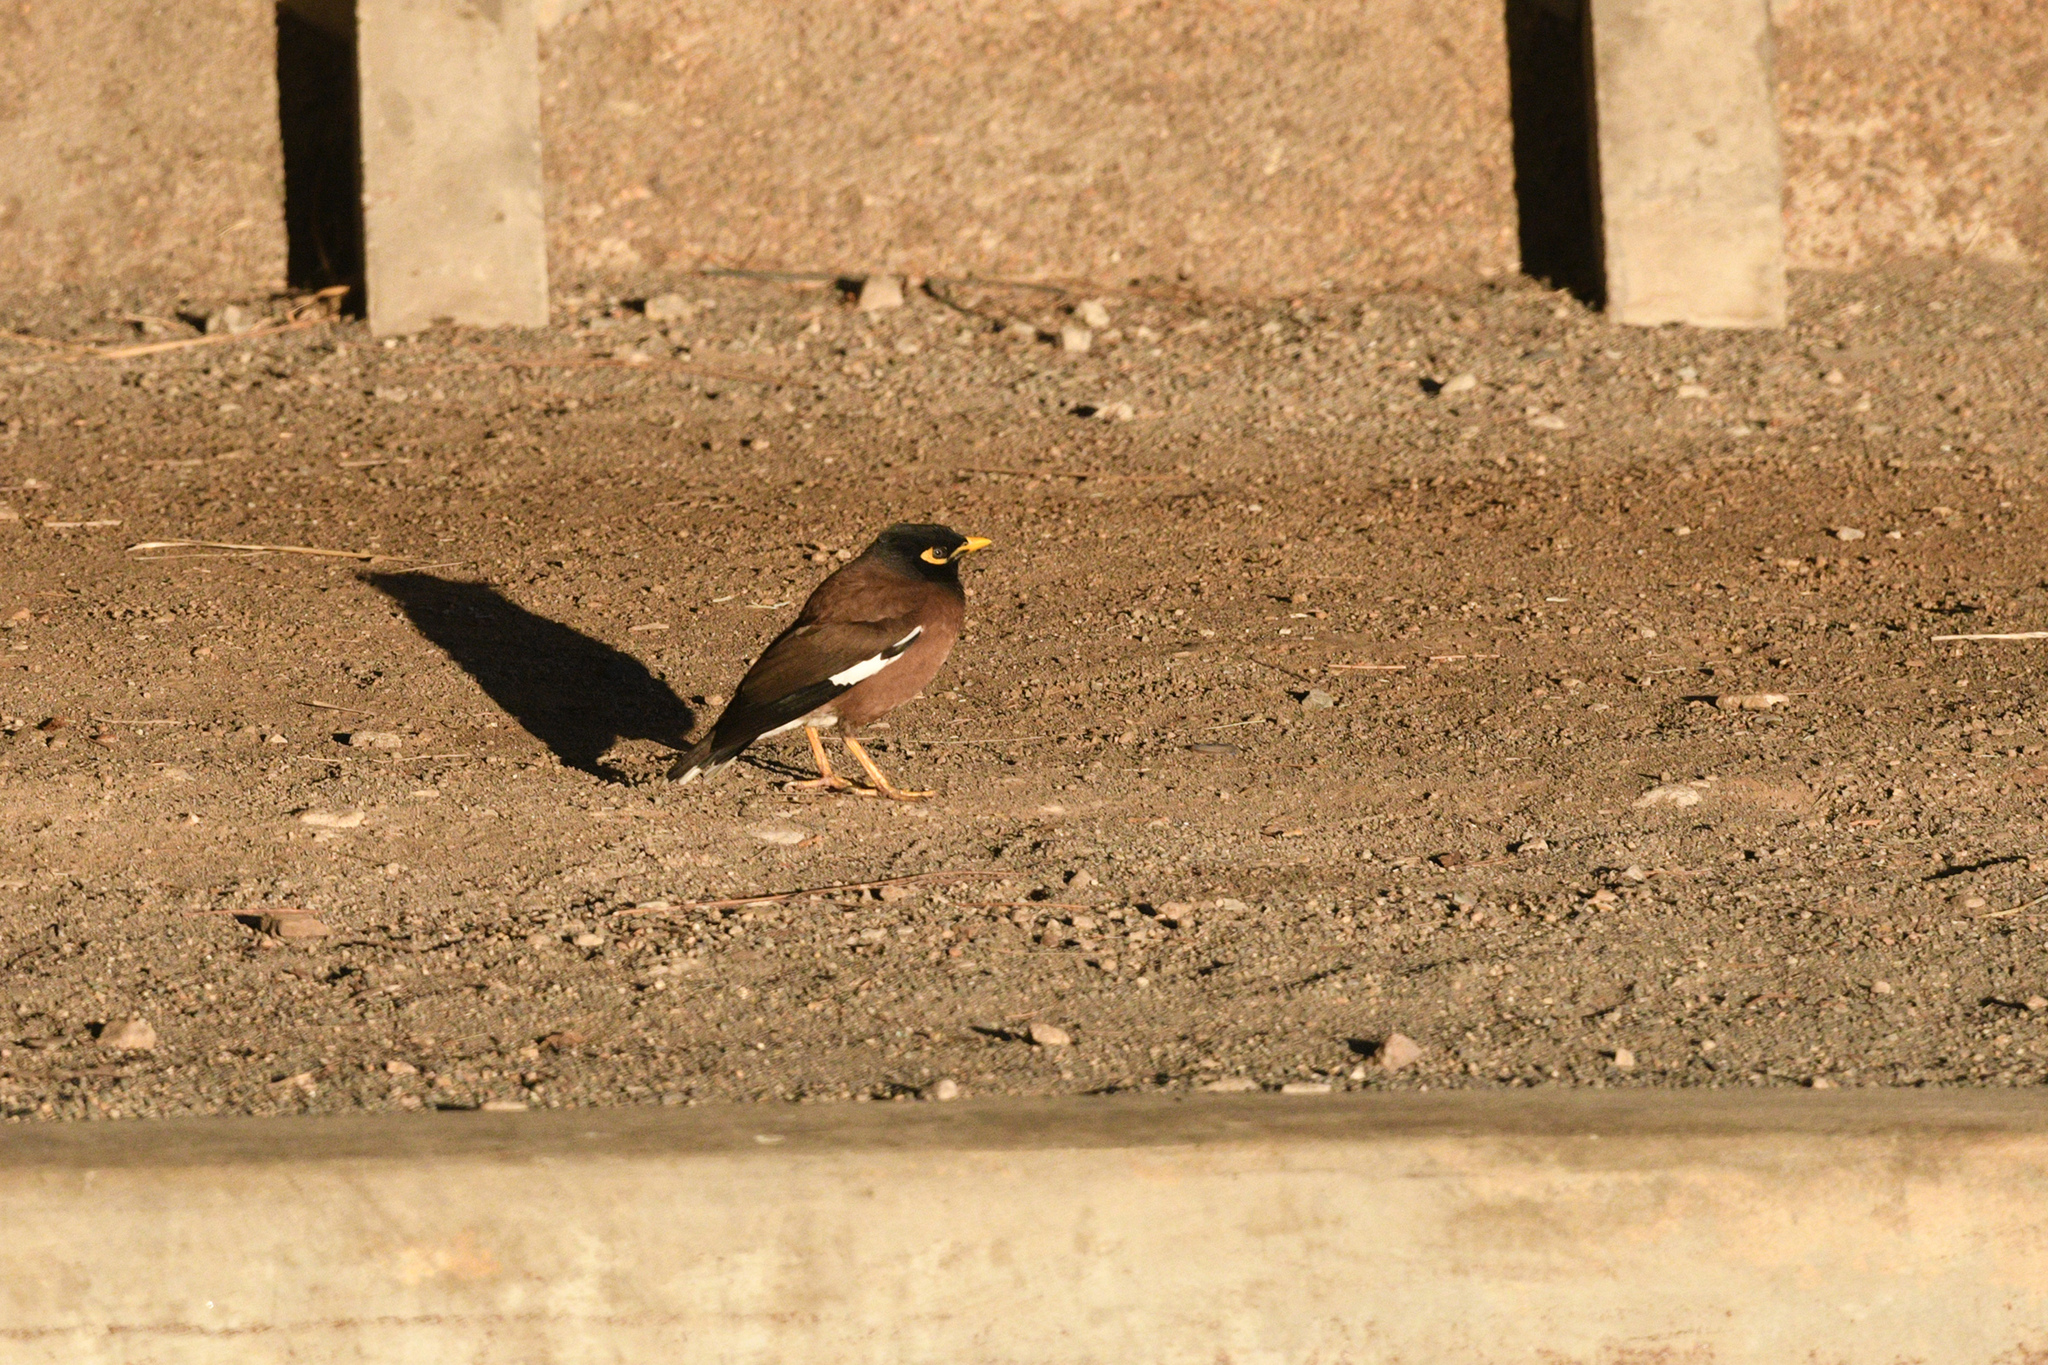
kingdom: Animalia
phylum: Chordata
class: Aves
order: Passeriformes
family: Sturnidae
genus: Acridotheres
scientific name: Acridotheres tristis
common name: Common myna
